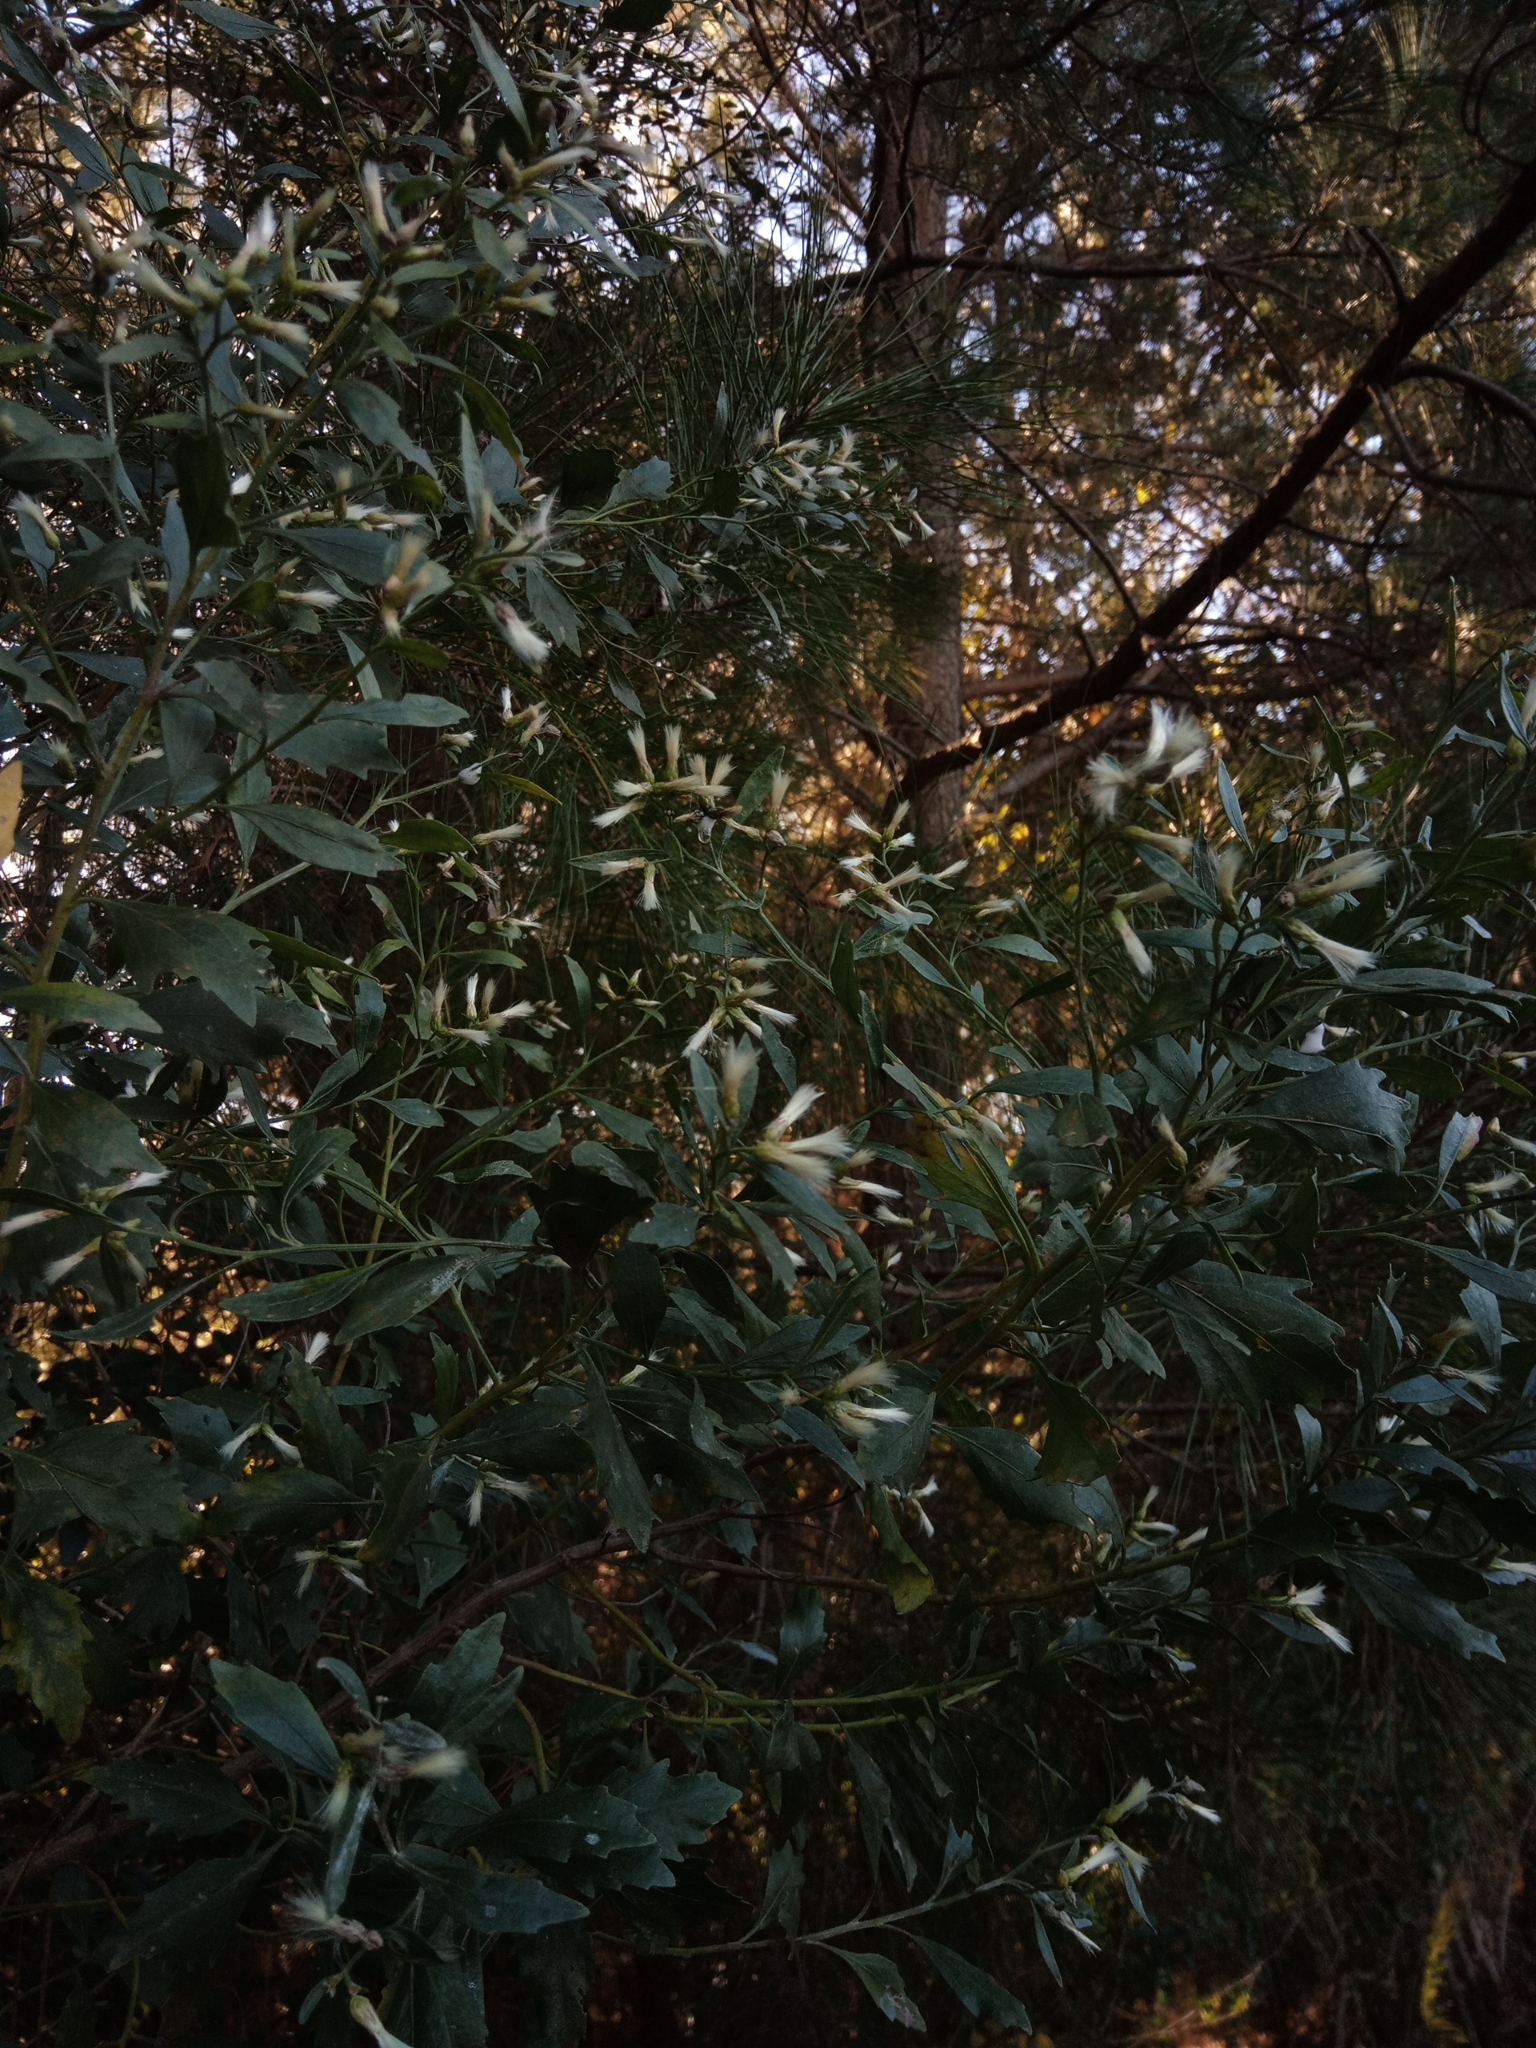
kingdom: Plantae
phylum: Tracheophyta
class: Magnoliopsida
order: Asterales
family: Asteraceae
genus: Baccharis
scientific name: Baccharis halimifolia
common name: Eastern baccharis
